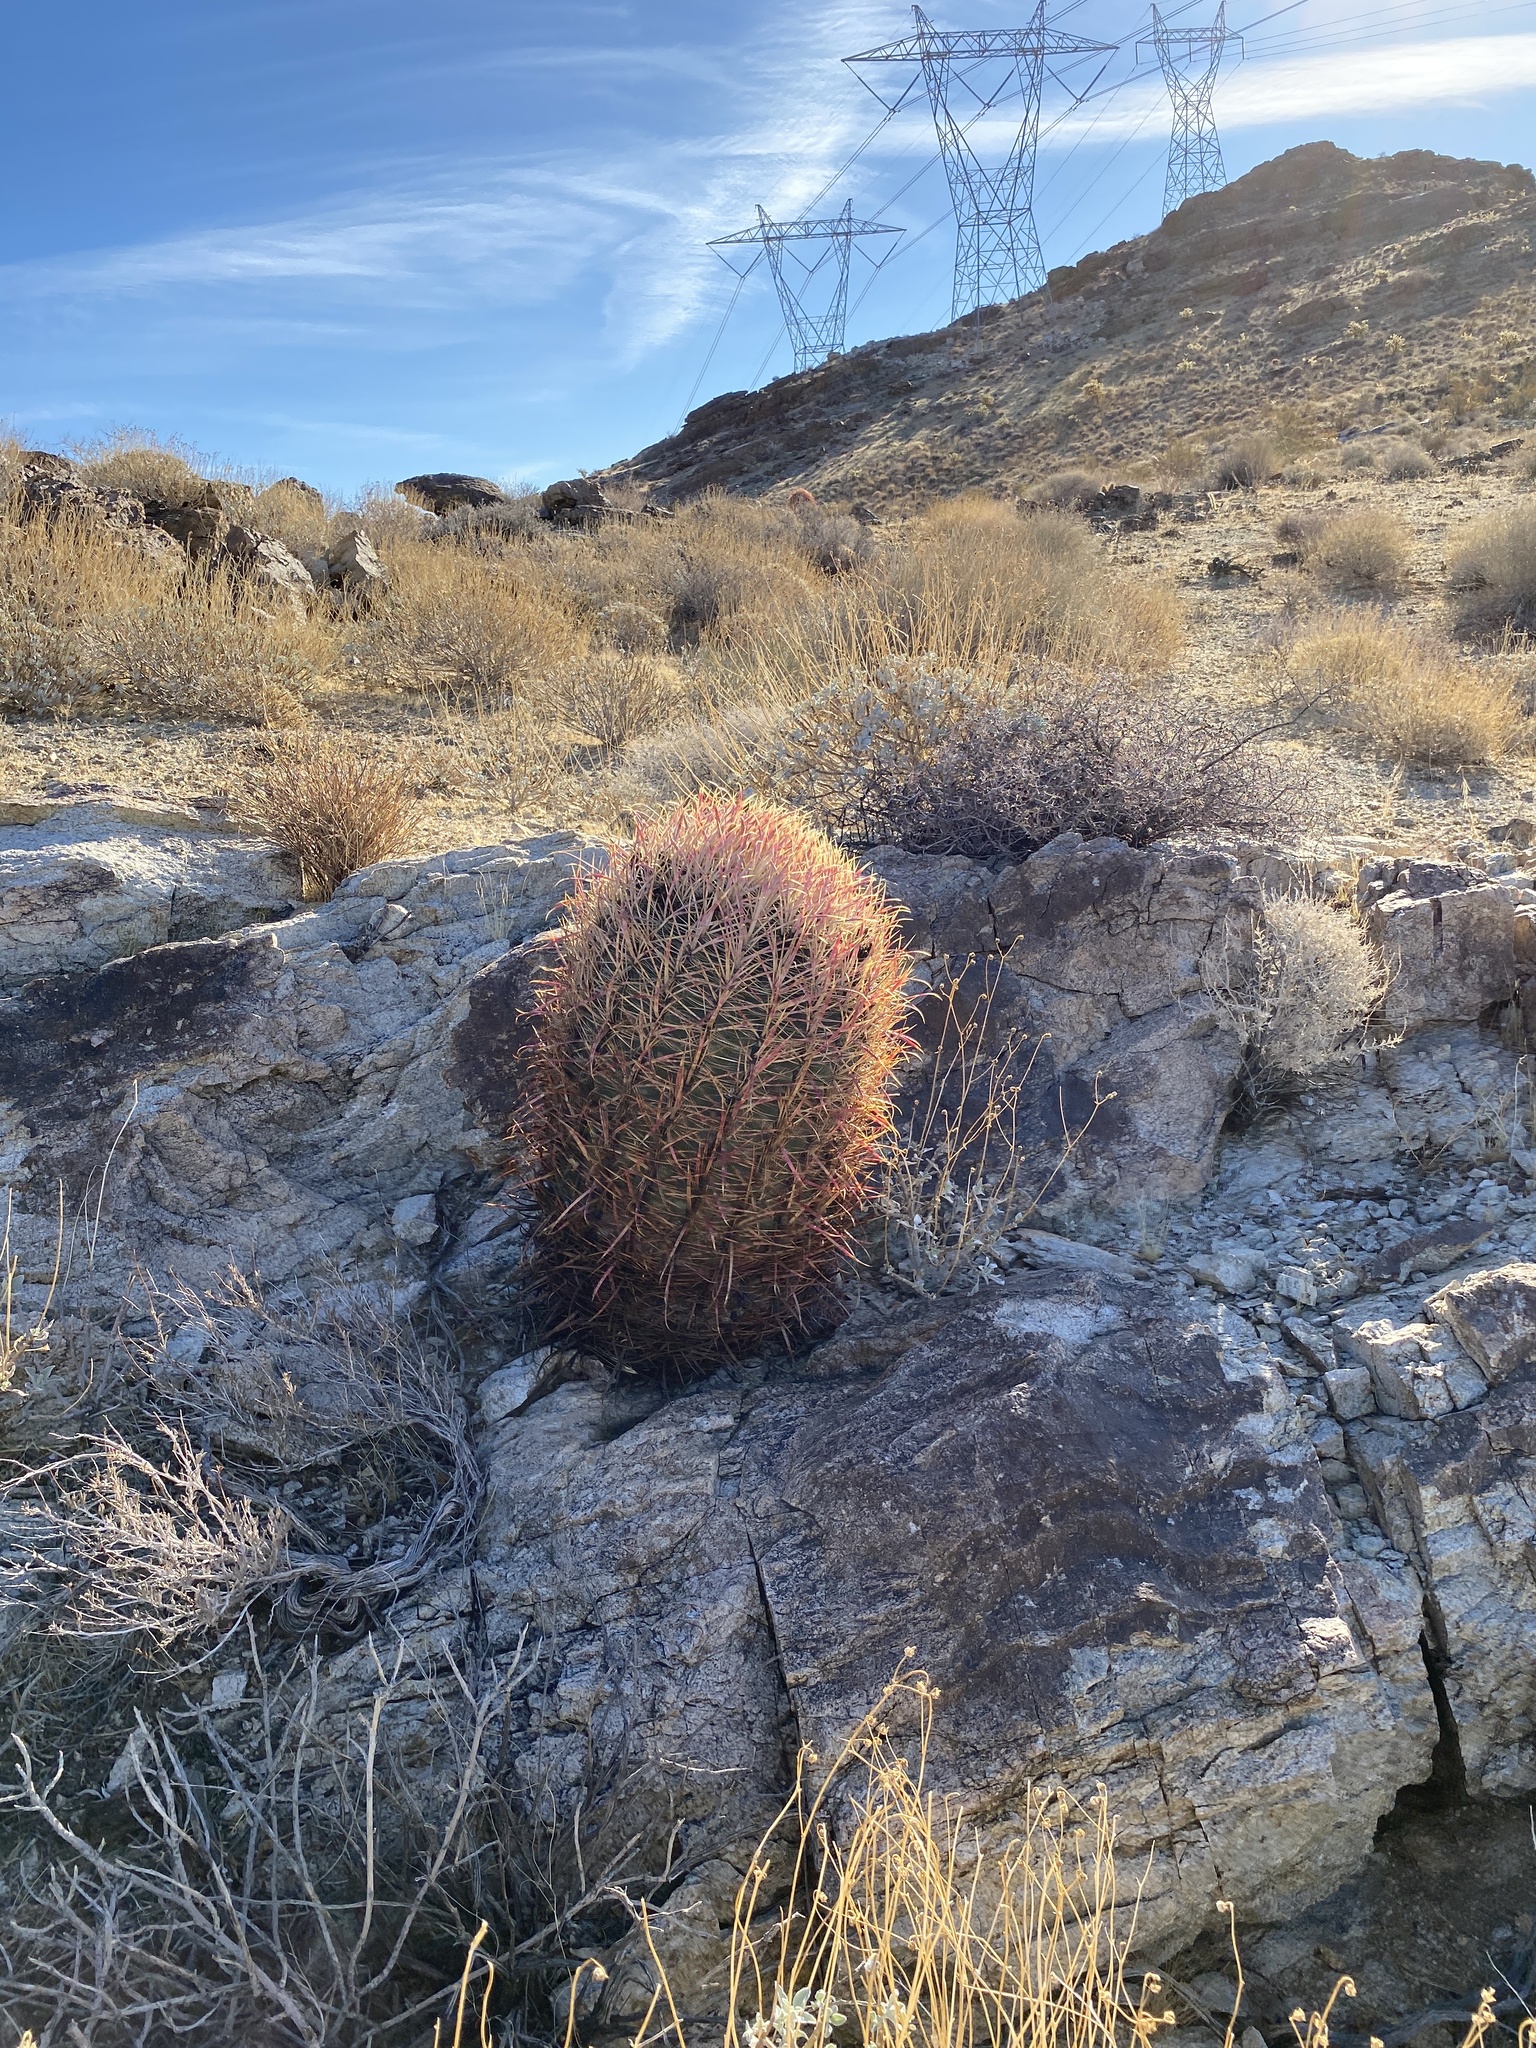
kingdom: Plantae
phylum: Tracheophyta
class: Magnoliopsida
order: Caryophyllales
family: Cactaceae
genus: Ferocactus
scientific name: Ferocactus cylindraceus
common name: California barrel cactus
